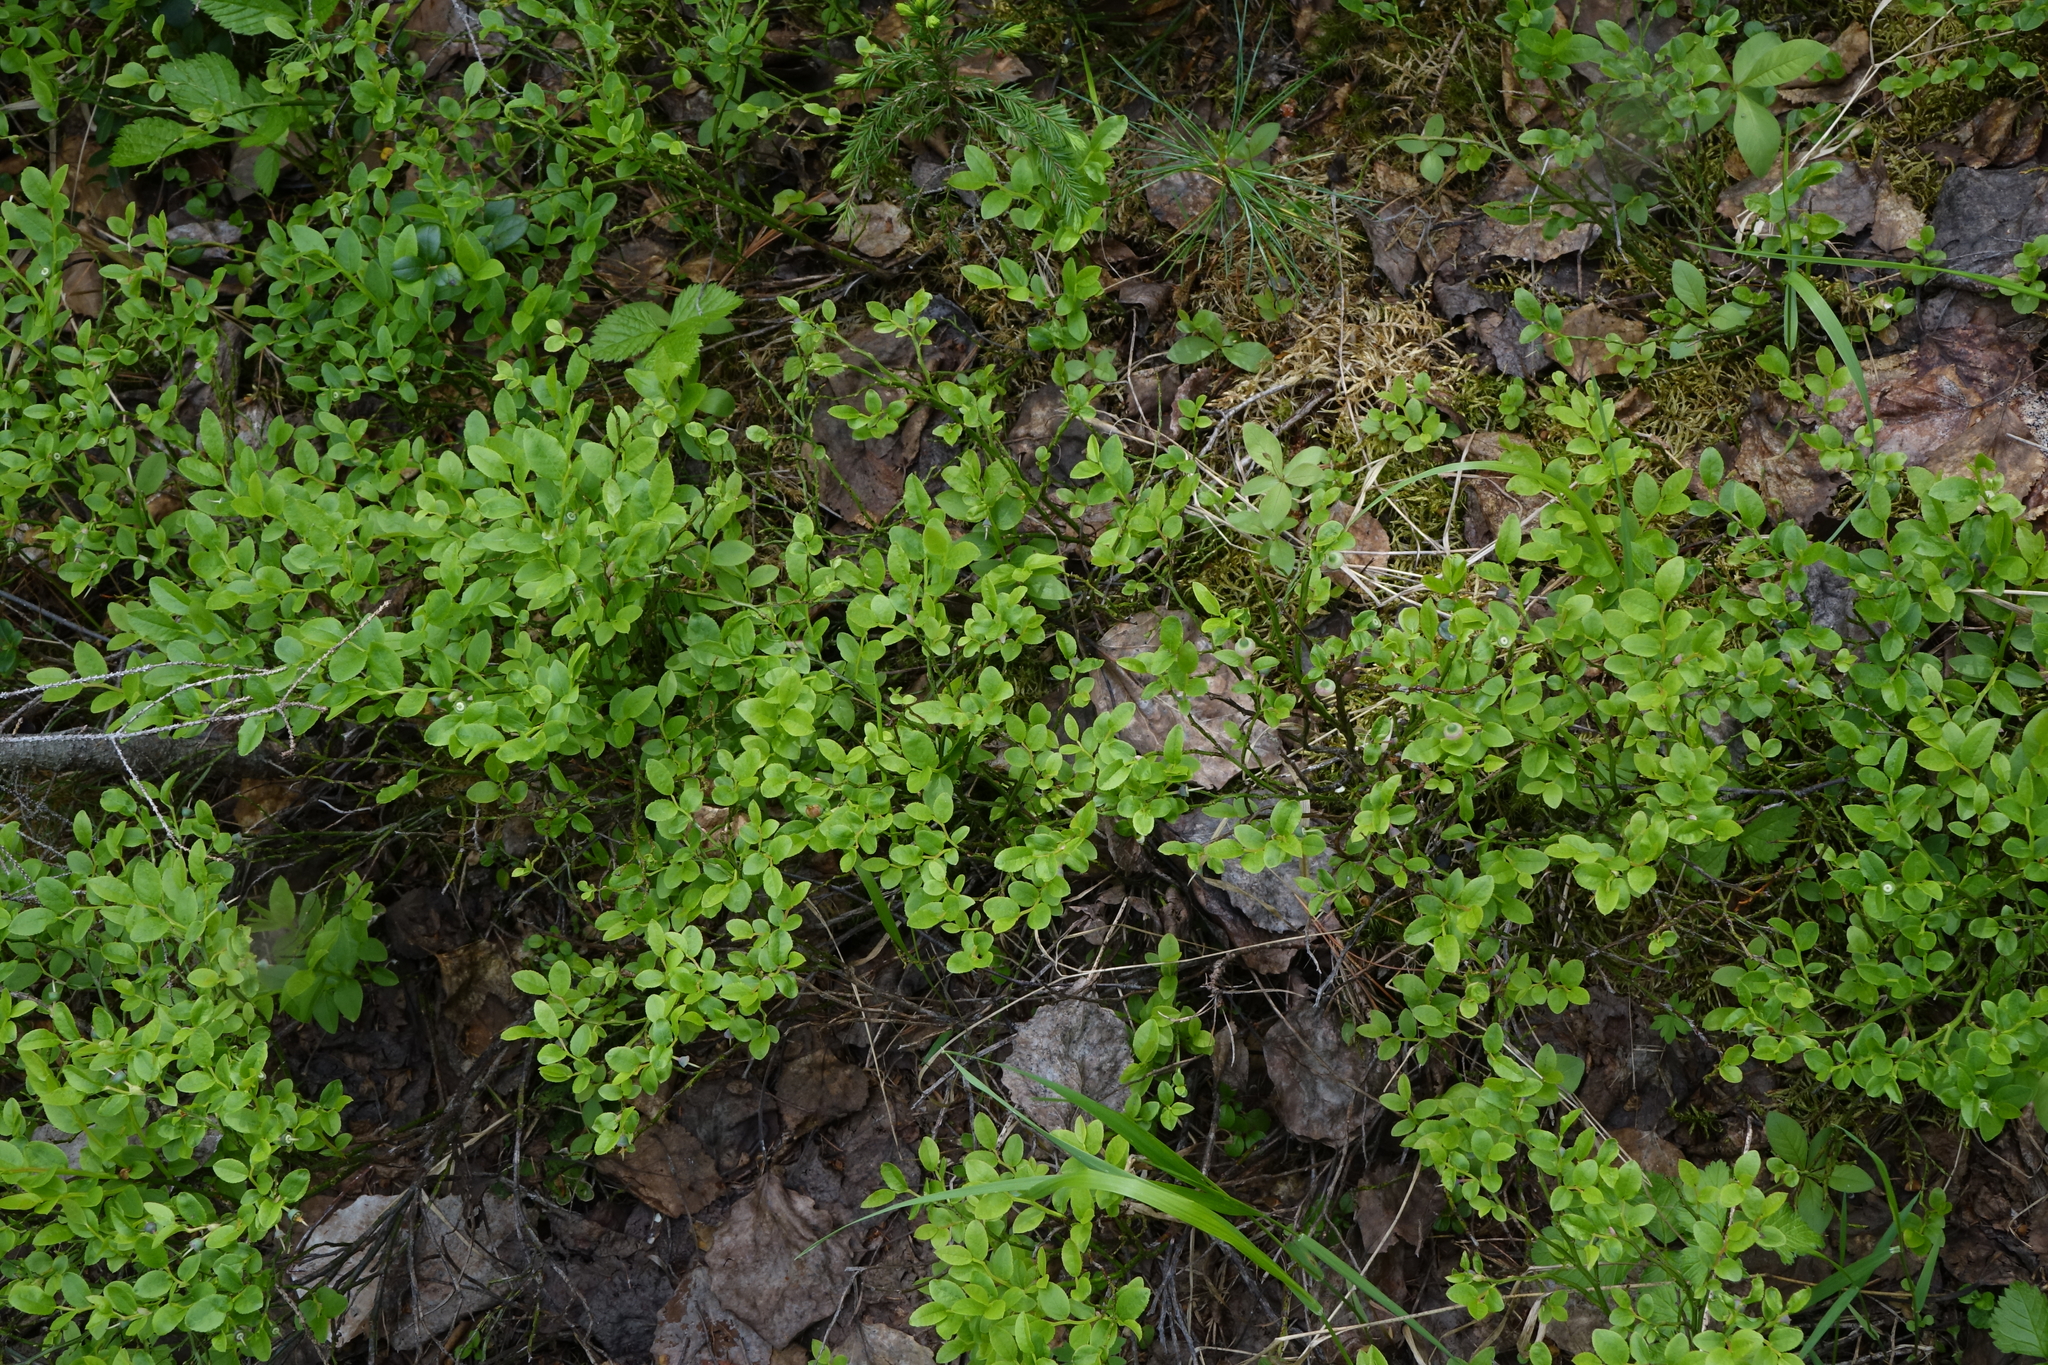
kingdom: Plantae
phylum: Tracheophyta
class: Magnoliopsida
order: Ericales
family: Ericaceae
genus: Vaccinium
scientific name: Vaccinium myrtillus
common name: Bilberry
